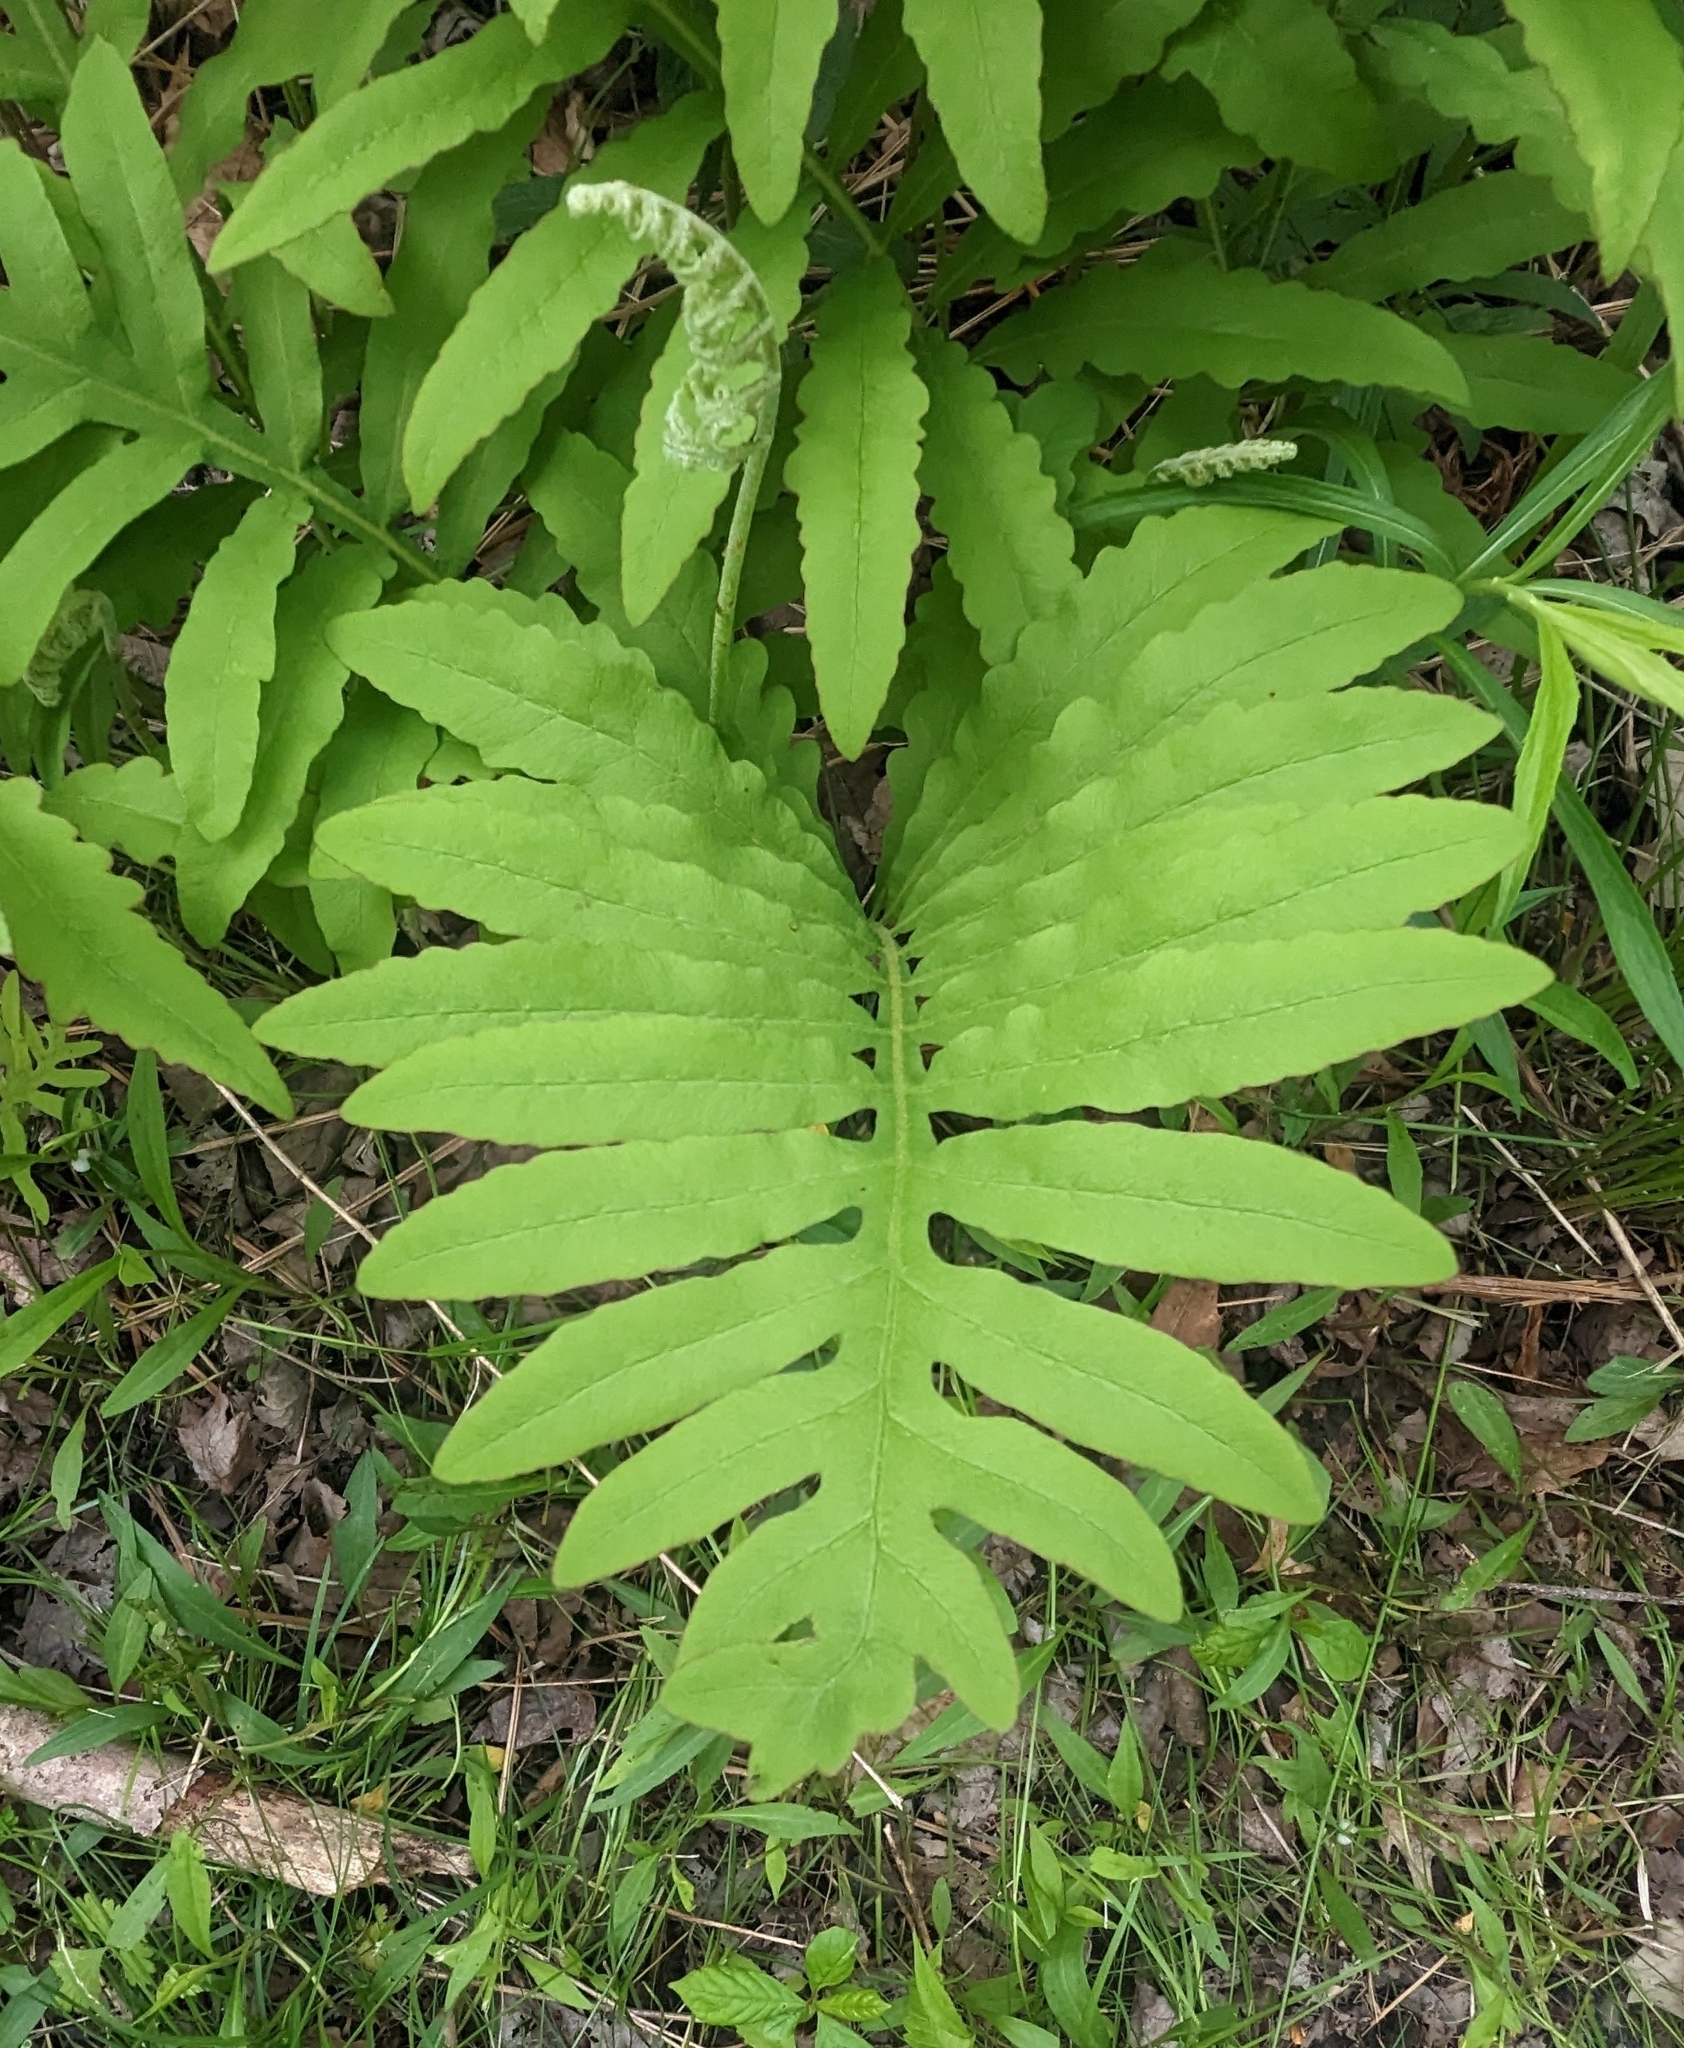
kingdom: Plantae
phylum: Tracheophyta
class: Polypodiopsida
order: Polypodiales
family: Onocleaceae
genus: Onoclea
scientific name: Onoclea sensibilis
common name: Sensitive fern
